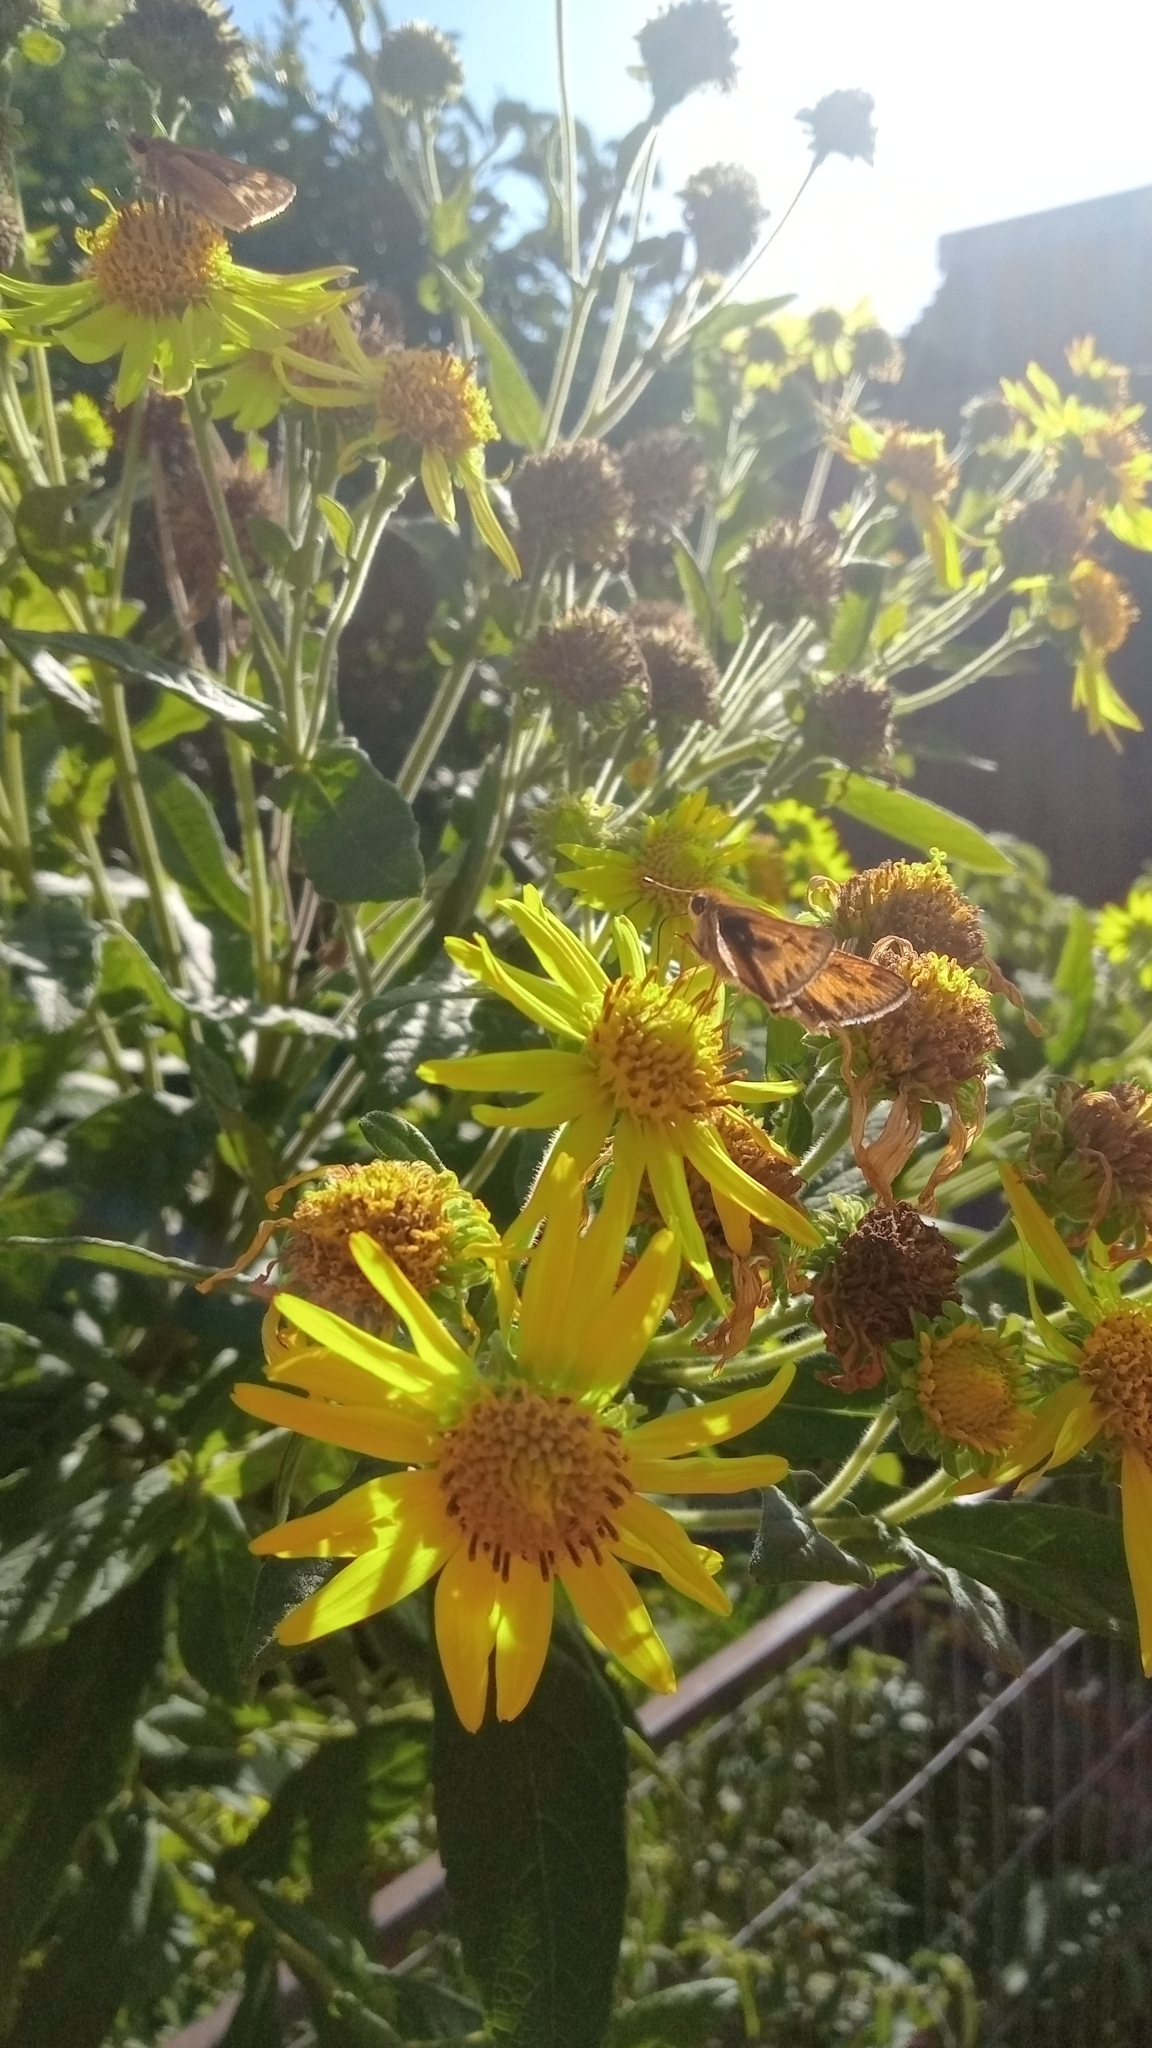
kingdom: Animalia
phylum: Arthropoda
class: Insecta
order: Lepidoptera
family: Hesperiidae
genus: Hylephila
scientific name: Hylephila phyleus
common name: Fiery skipper
